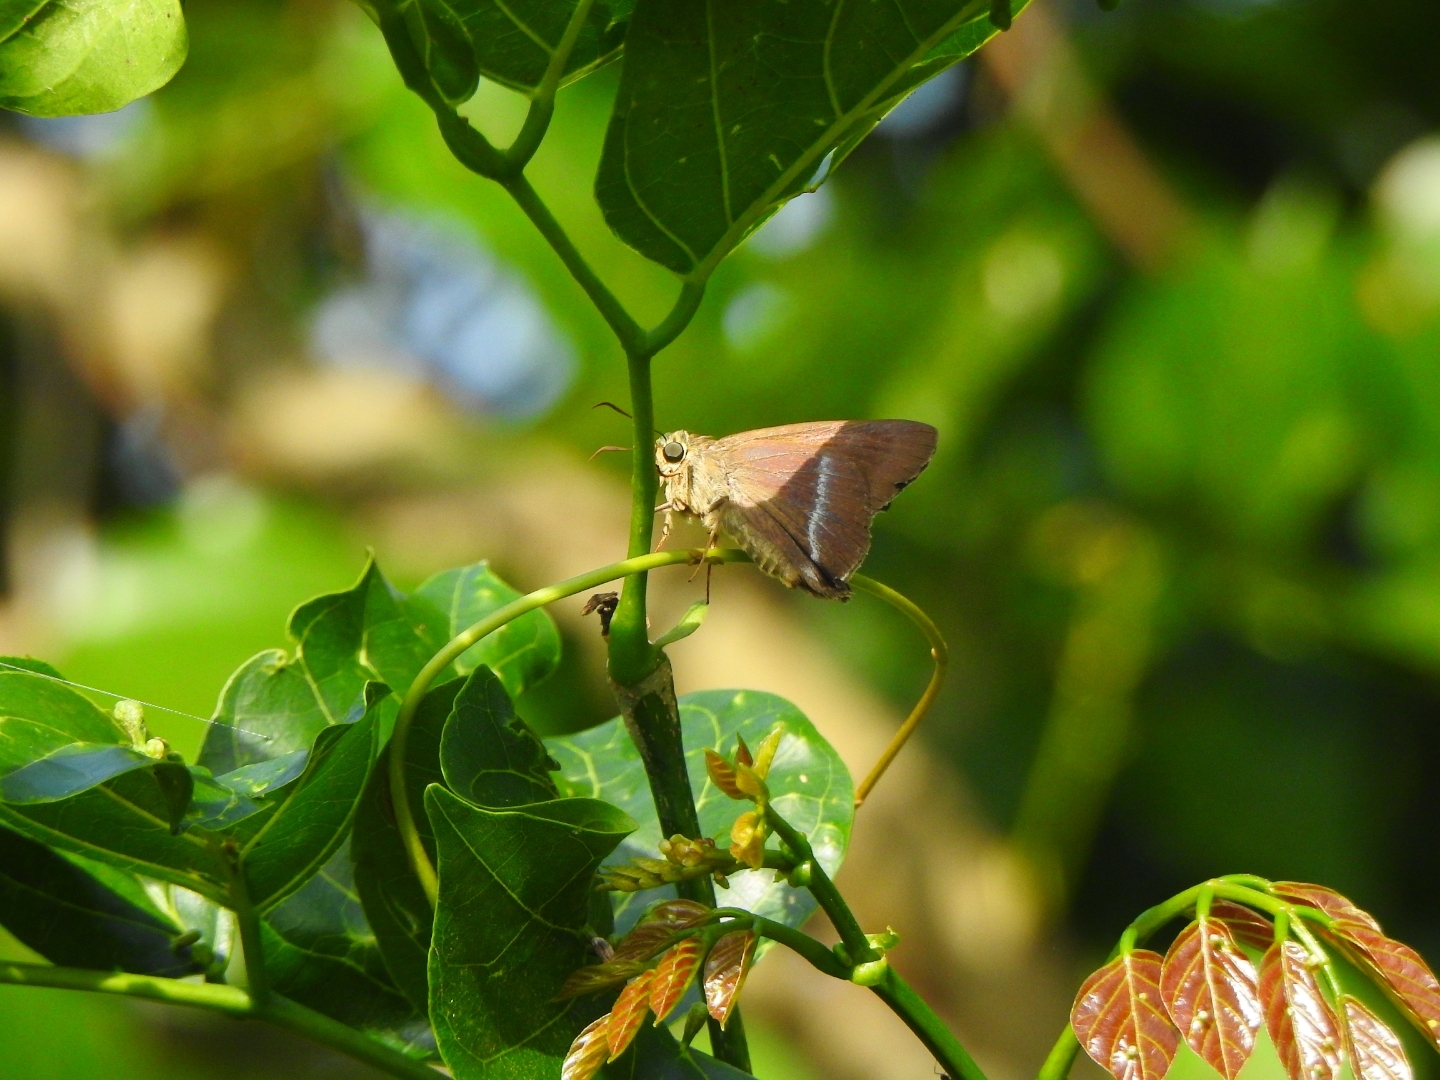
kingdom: Animalia
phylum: Arthropoda
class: Insecta
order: Lepidoptera
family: Hesperiidae
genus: Hasora
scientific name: Hasora chromus
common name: Common banded awl
